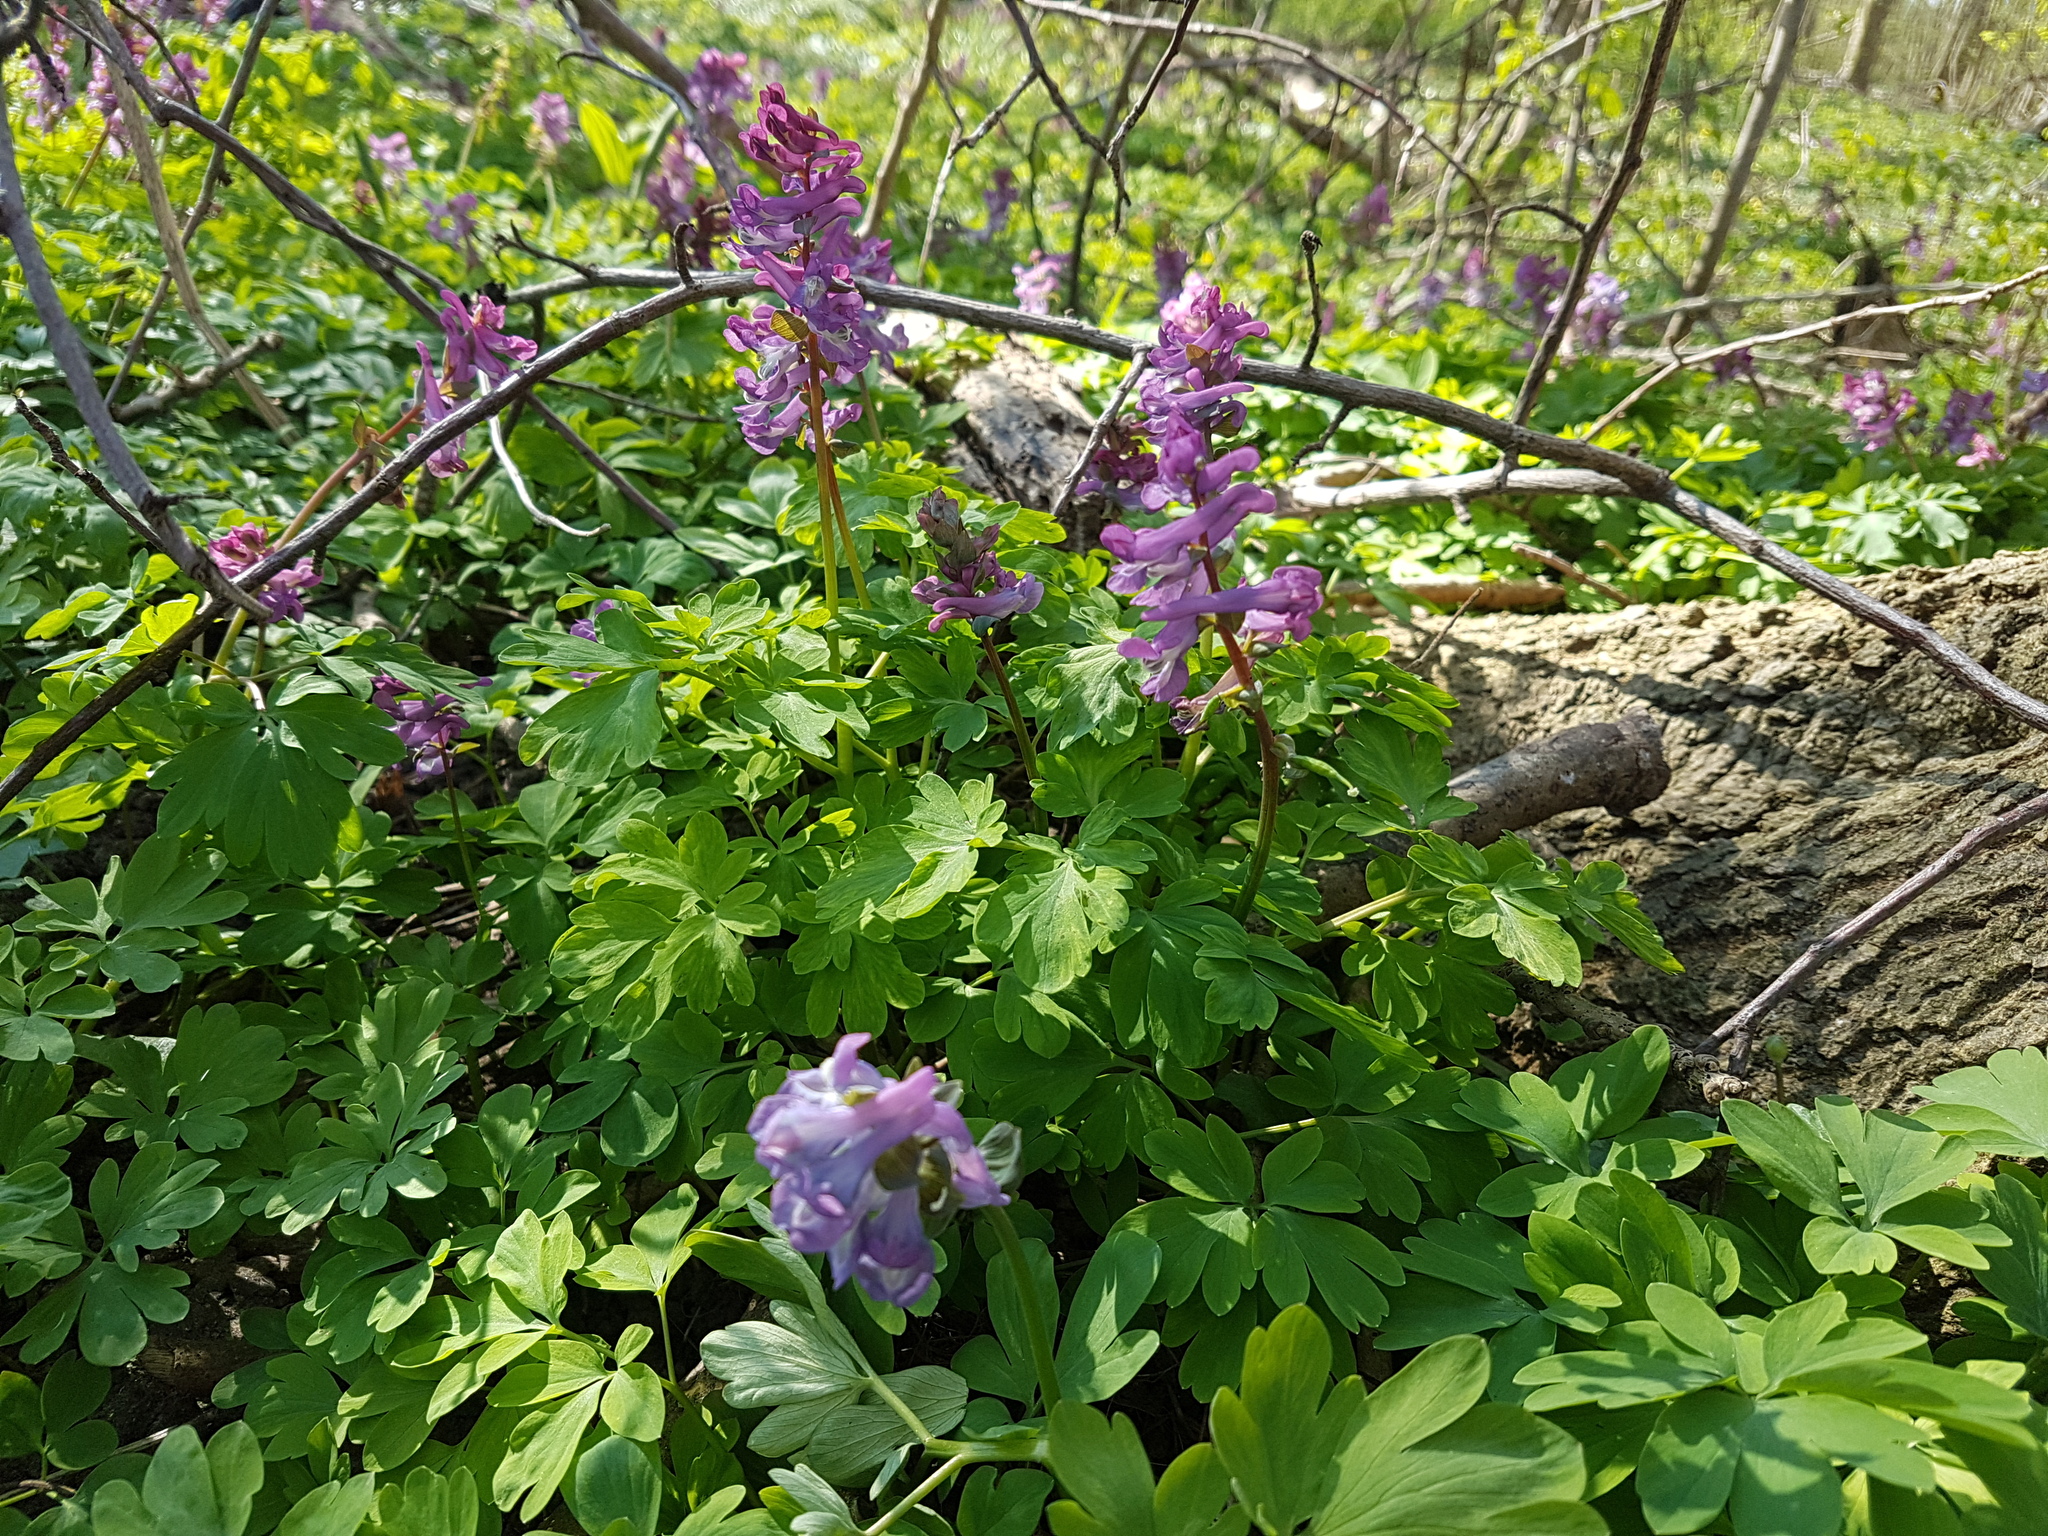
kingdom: Plantae
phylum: Tracheophyta
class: Magnoliopsida
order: Ranunculales
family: Papaveraceae
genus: Corydalis
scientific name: Corydalis cava
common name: Hollowroot
